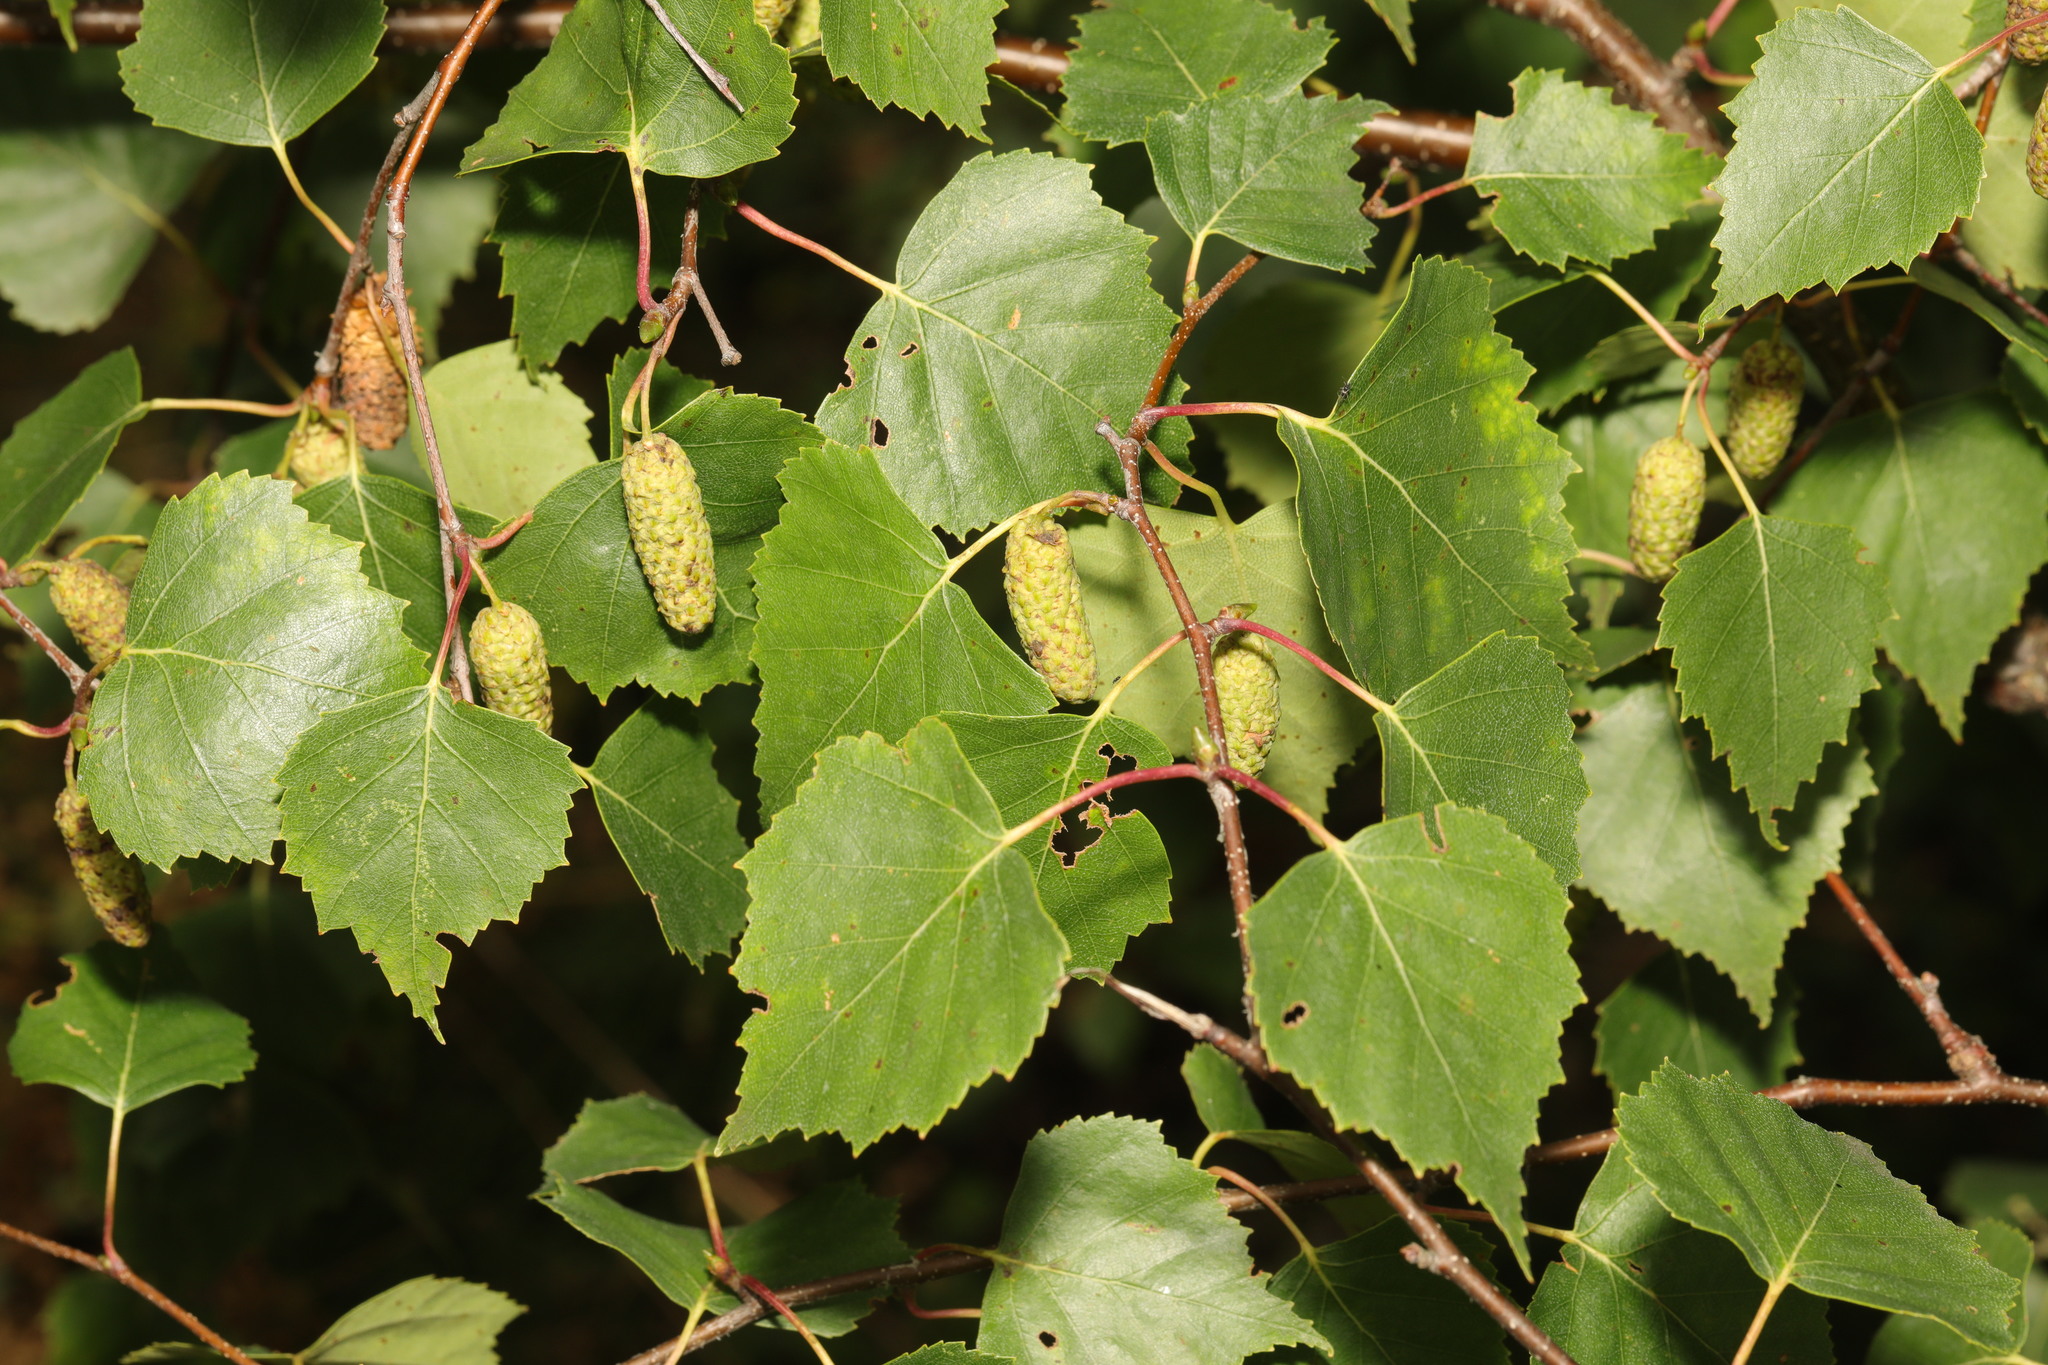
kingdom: Plantae
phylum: Tracheophyta
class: Magnoliopsida
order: Fagales
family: Betulaceae
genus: Betula
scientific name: Betula pendula
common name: Silver birch
